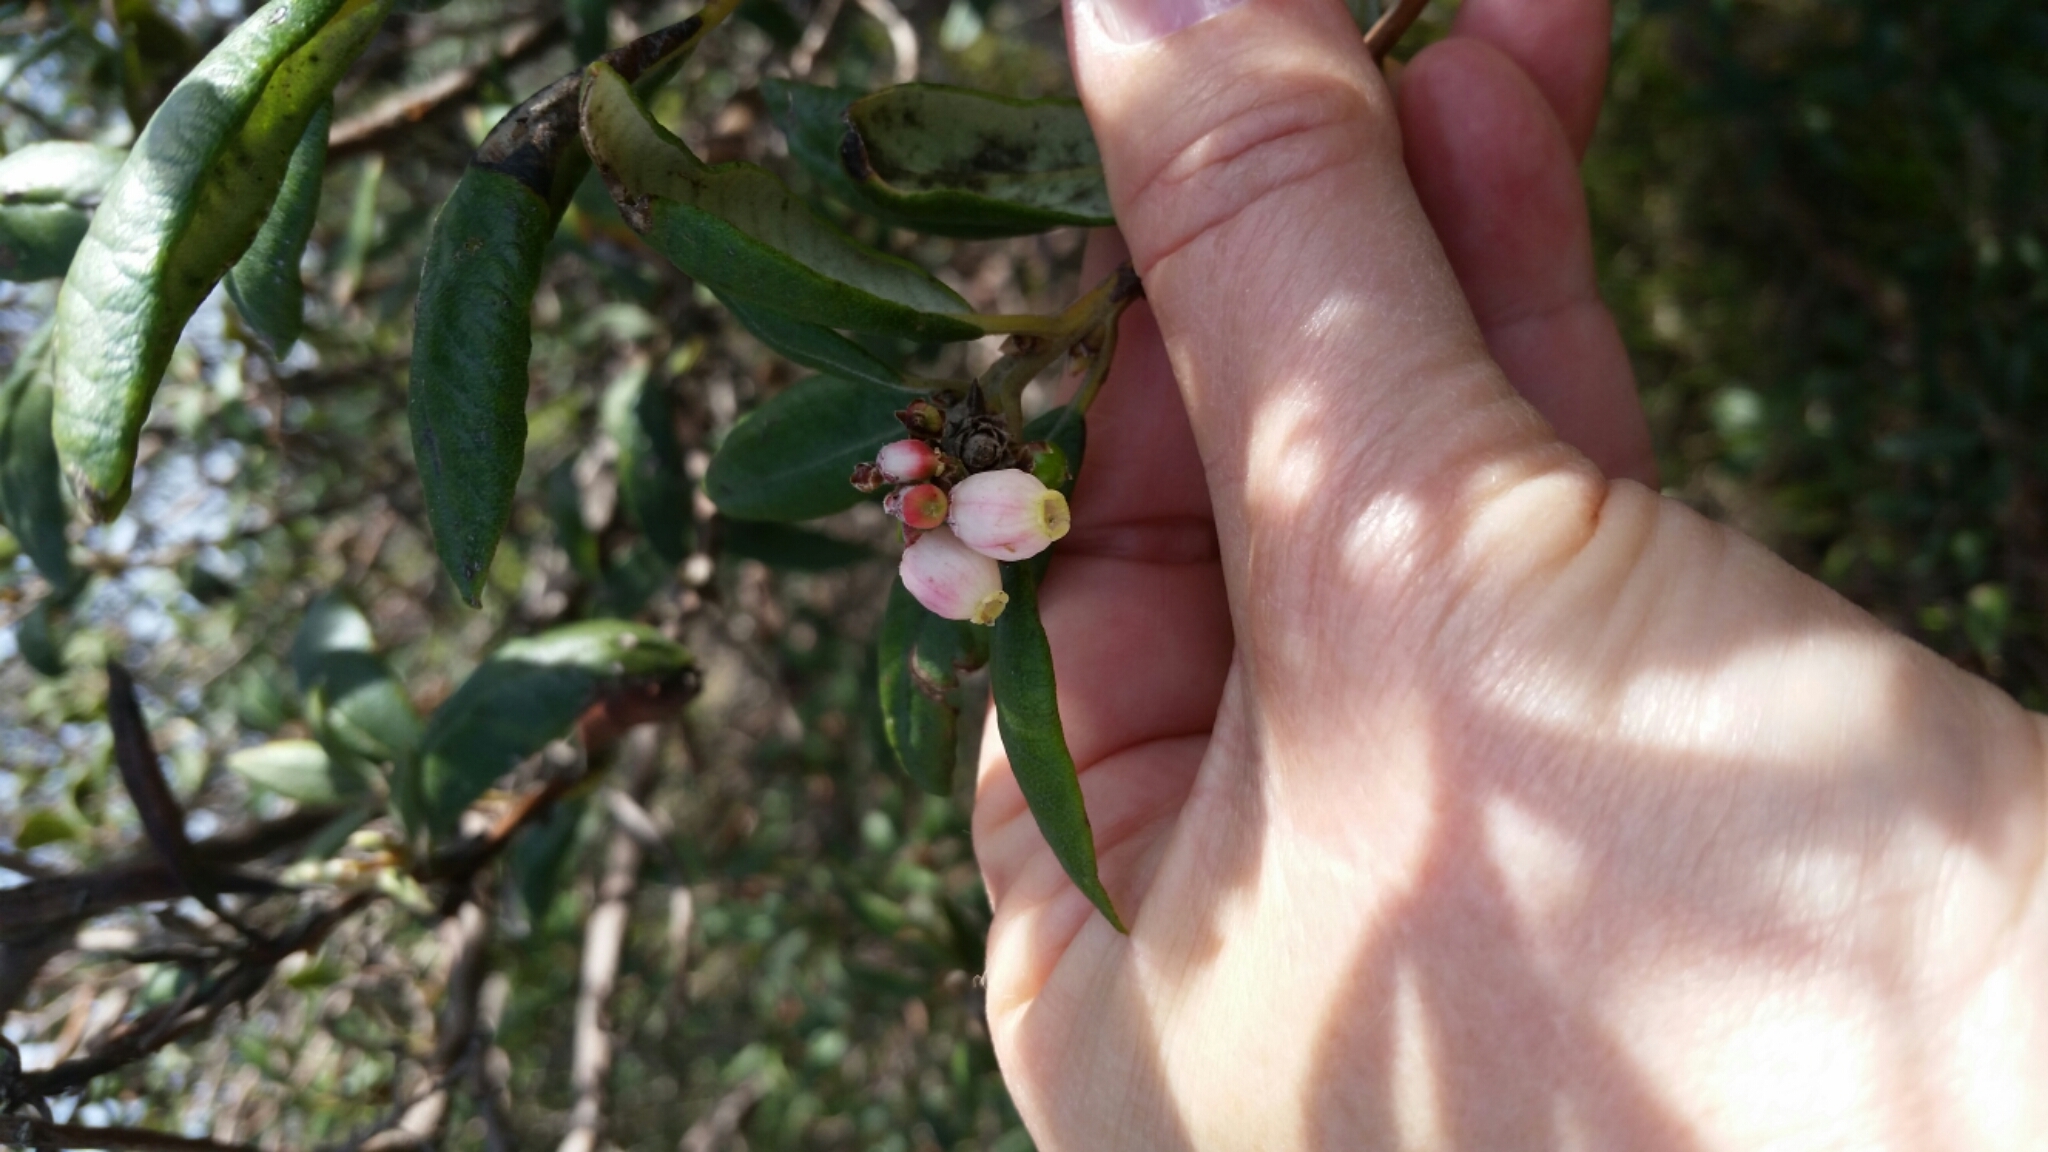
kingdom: Plantae
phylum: Tracheophyta
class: Magnoliopsida
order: Ericales
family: Ericaceae
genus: Arctostaphylos
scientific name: Arctostaphylos bicolor
